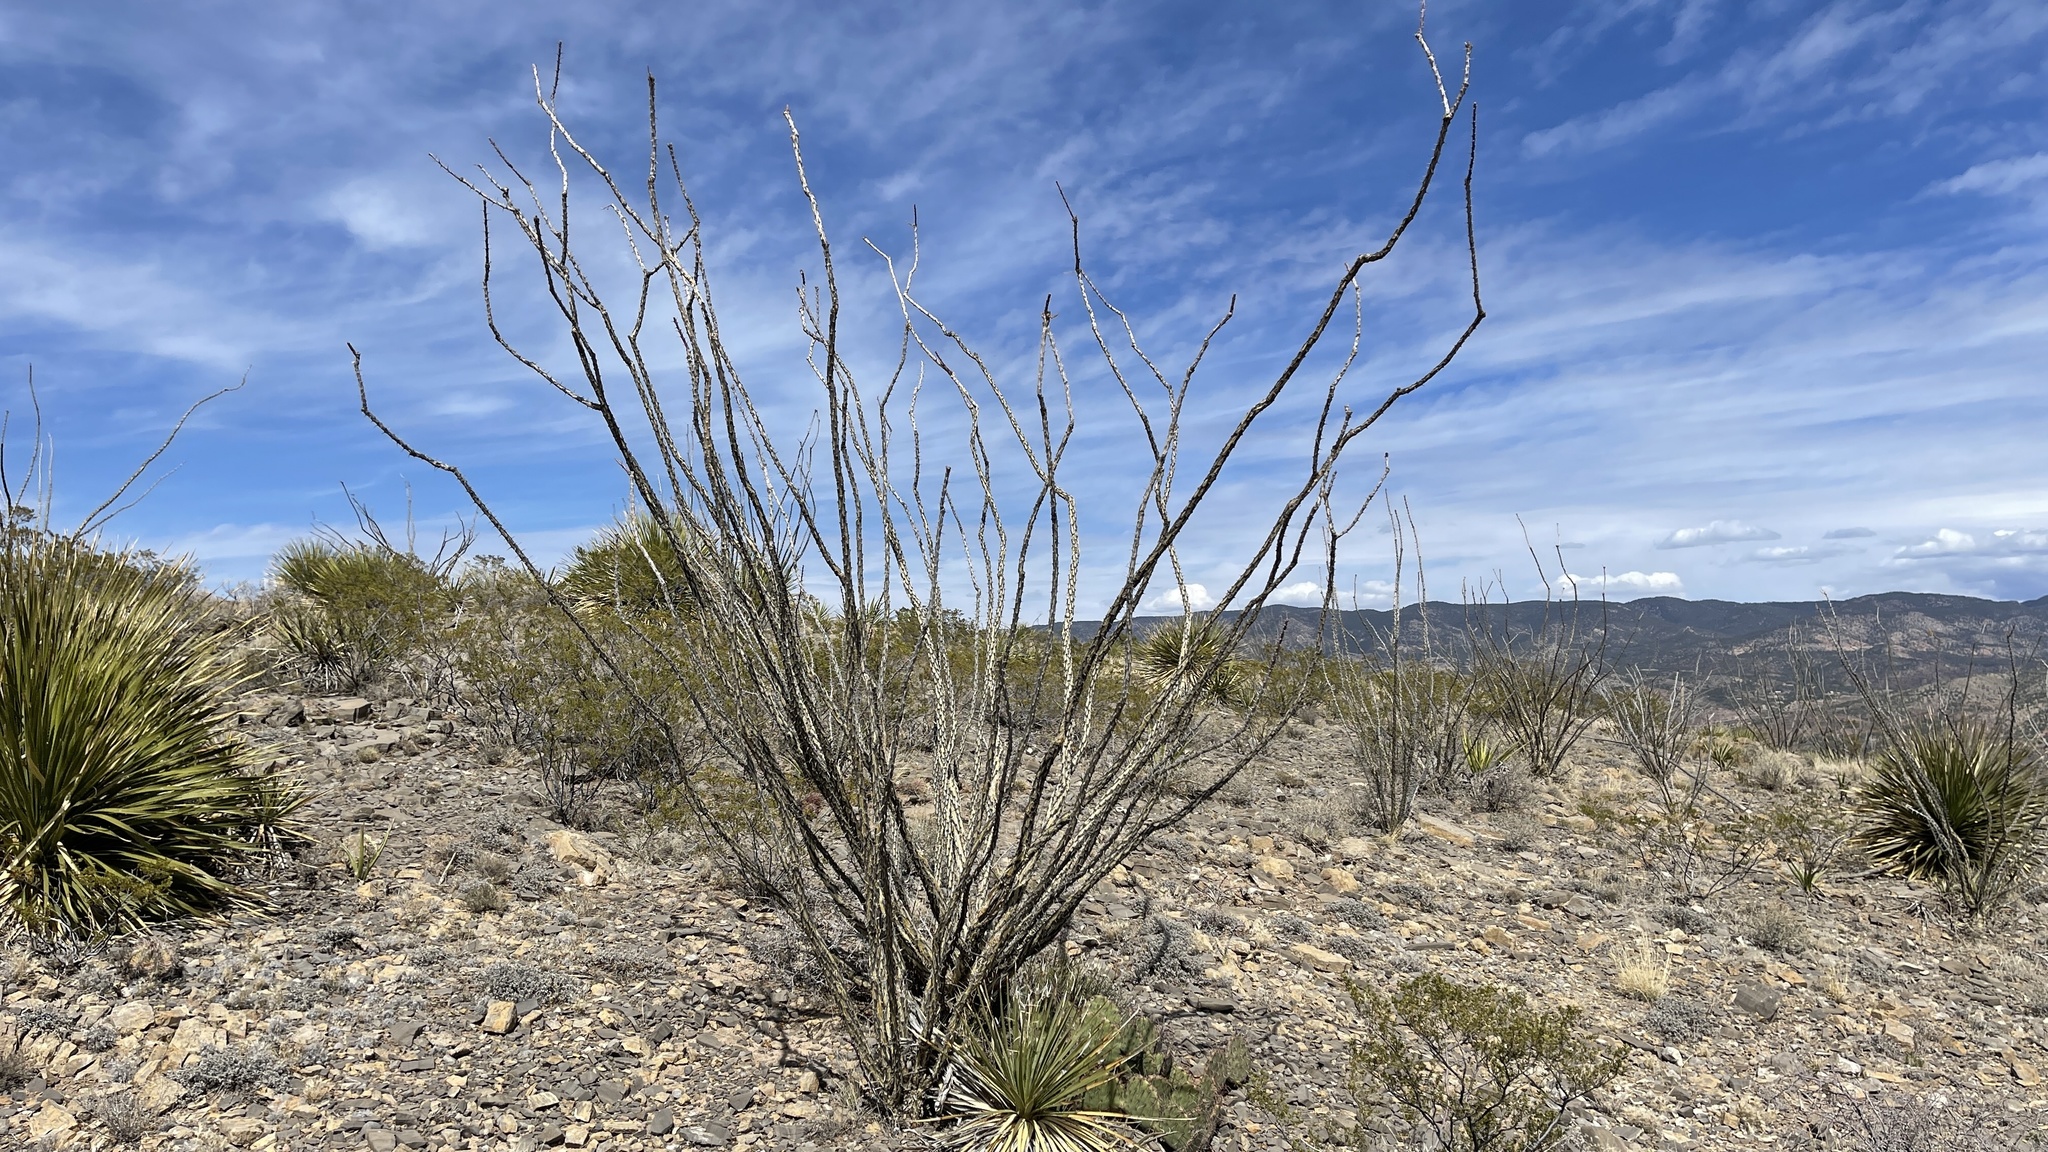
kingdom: Plantae
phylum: Tracheophyta
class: Magnoliopsida
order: Ericales
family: Fouquieriaceae
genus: Fouquieria
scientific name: Fouquieria splendens
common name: Vine-cactus
